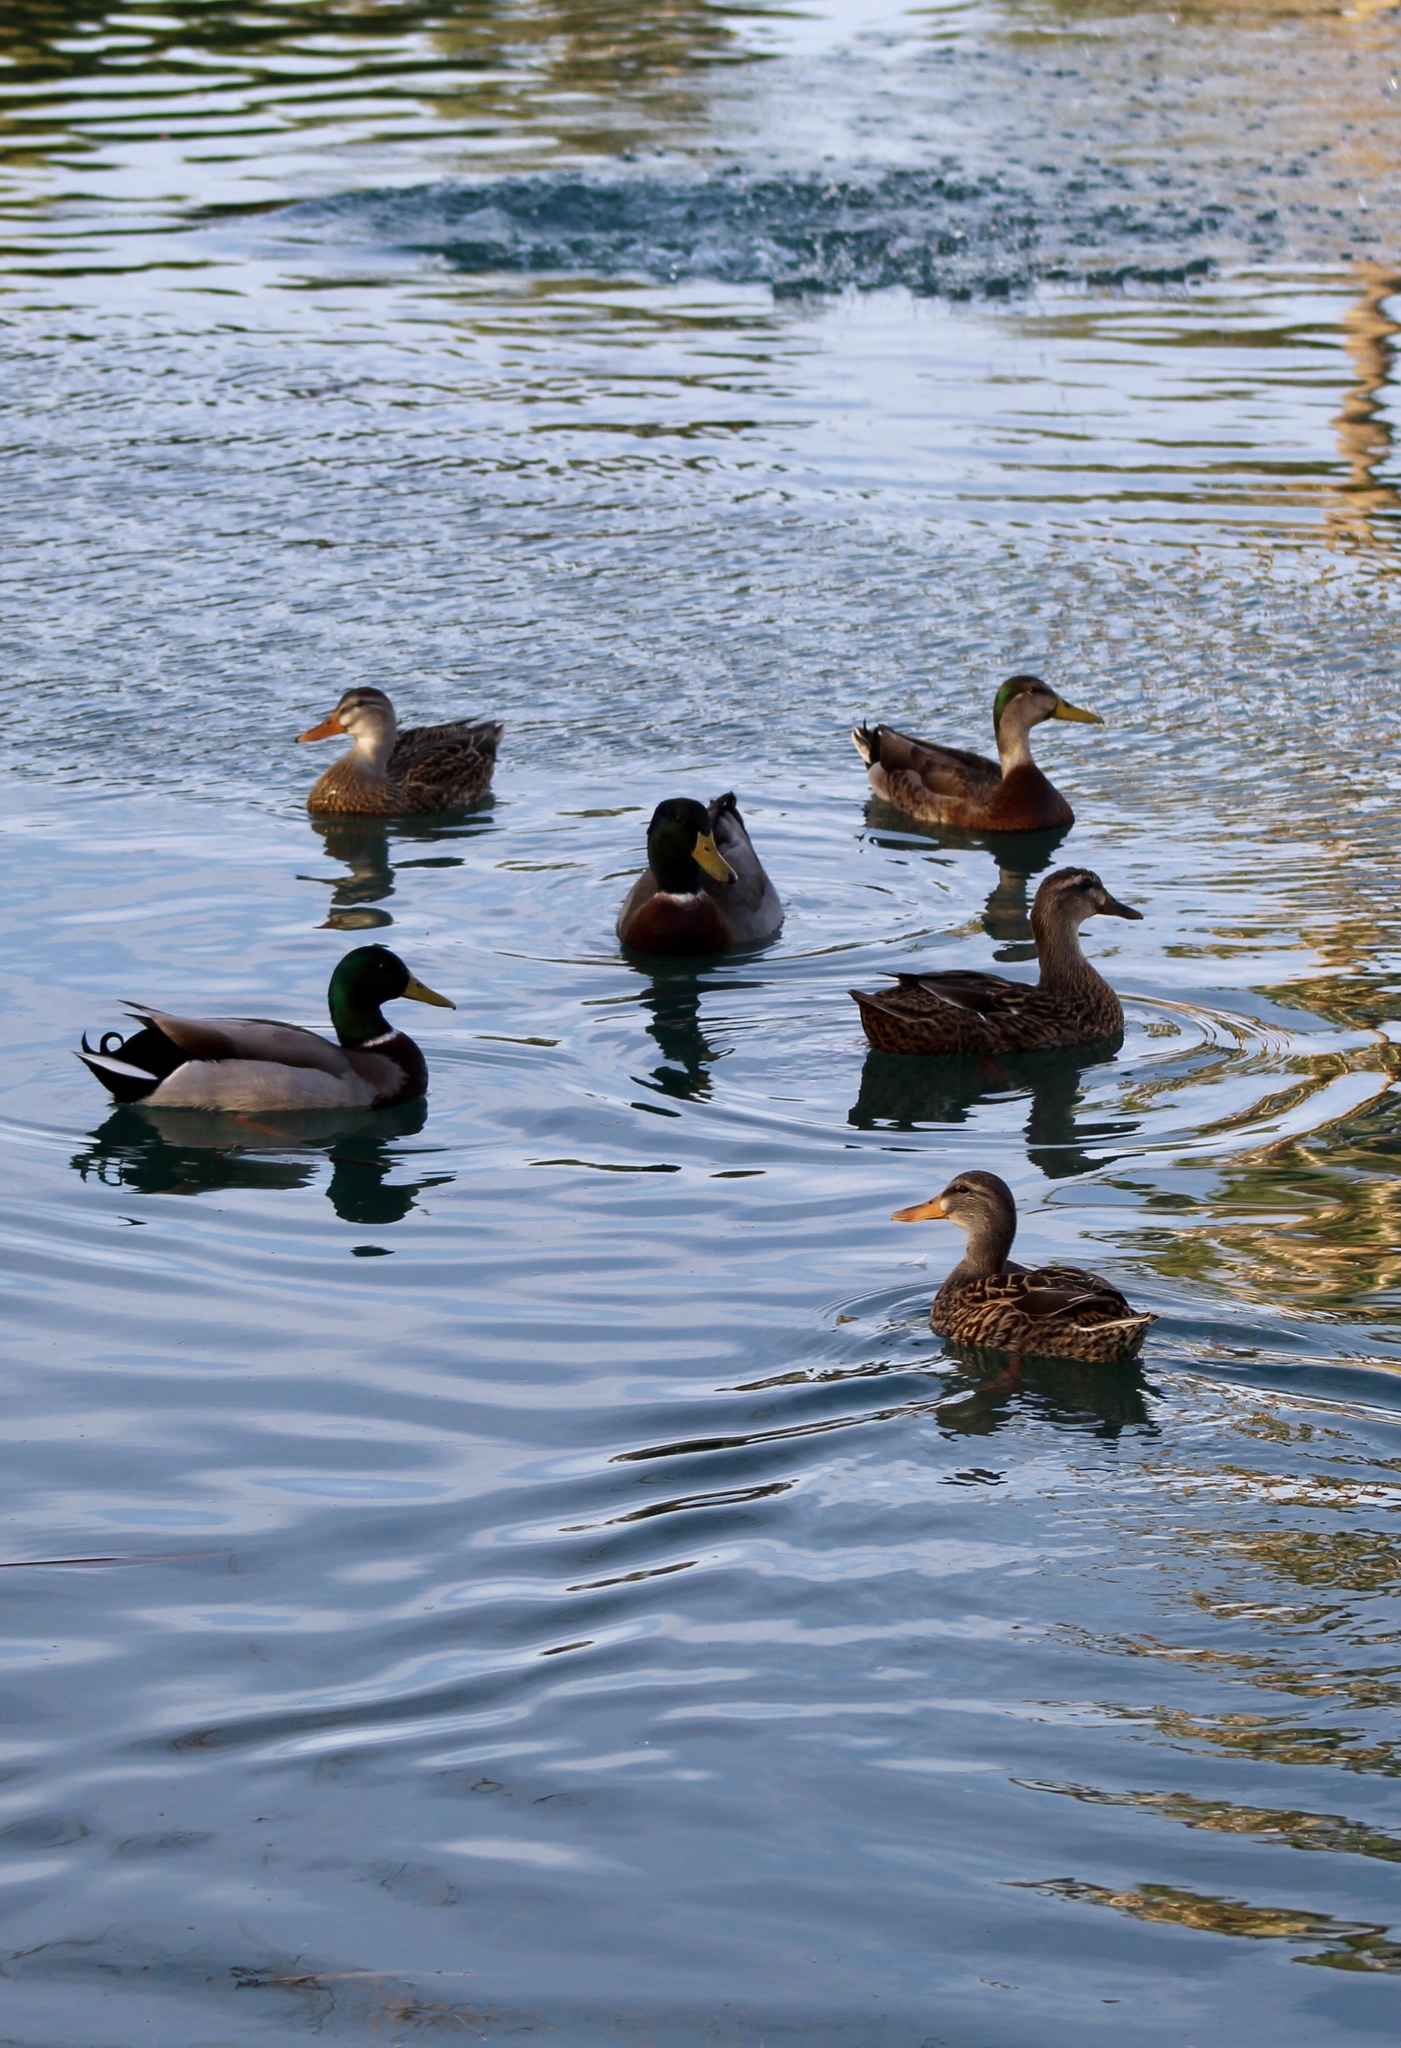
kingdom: Animalia
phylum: Chordata
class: Aves
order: Anseriformes
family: Anatidae
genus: Anas
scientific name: Anas platyrhynchos
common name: Mallard
